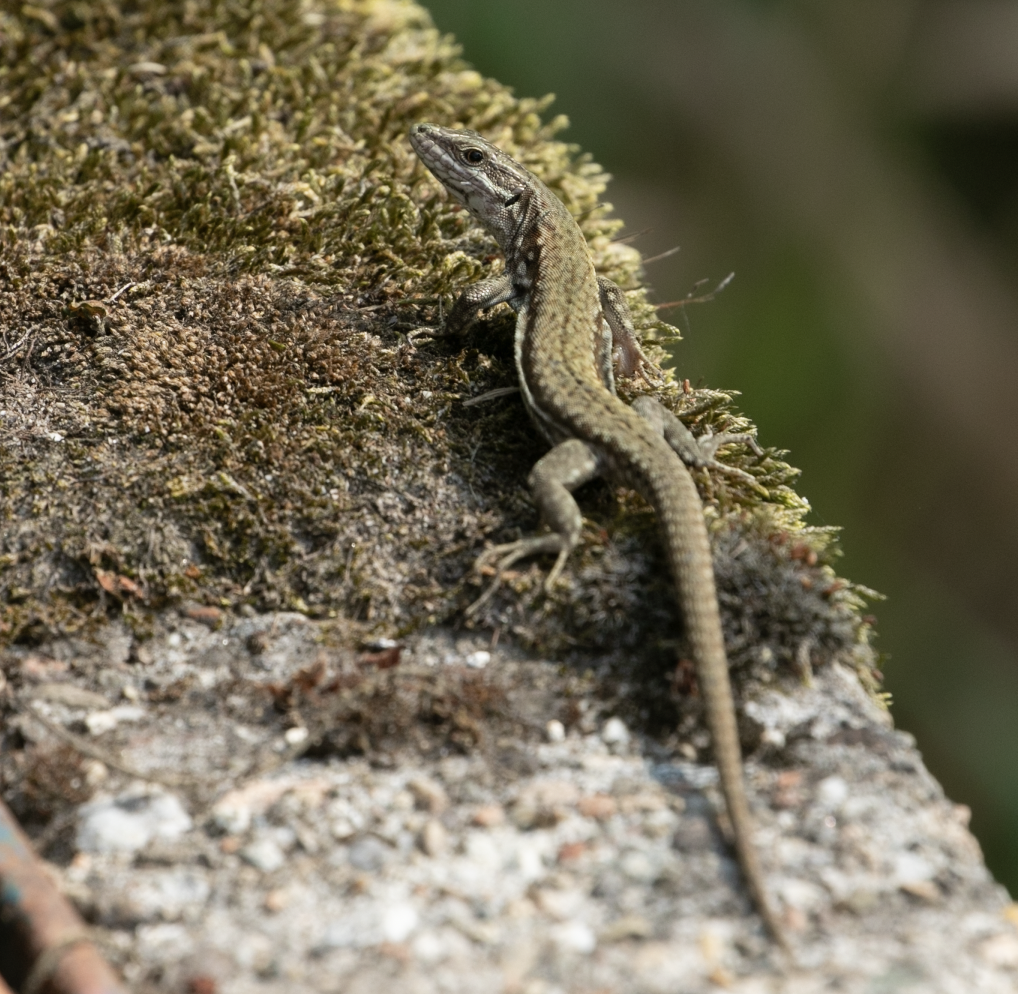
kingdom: Animalia
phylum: Chordata
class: Squamata
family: Lacertidae
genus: Podarcis
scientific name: Podarcis muralis
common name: Common wall lizard
